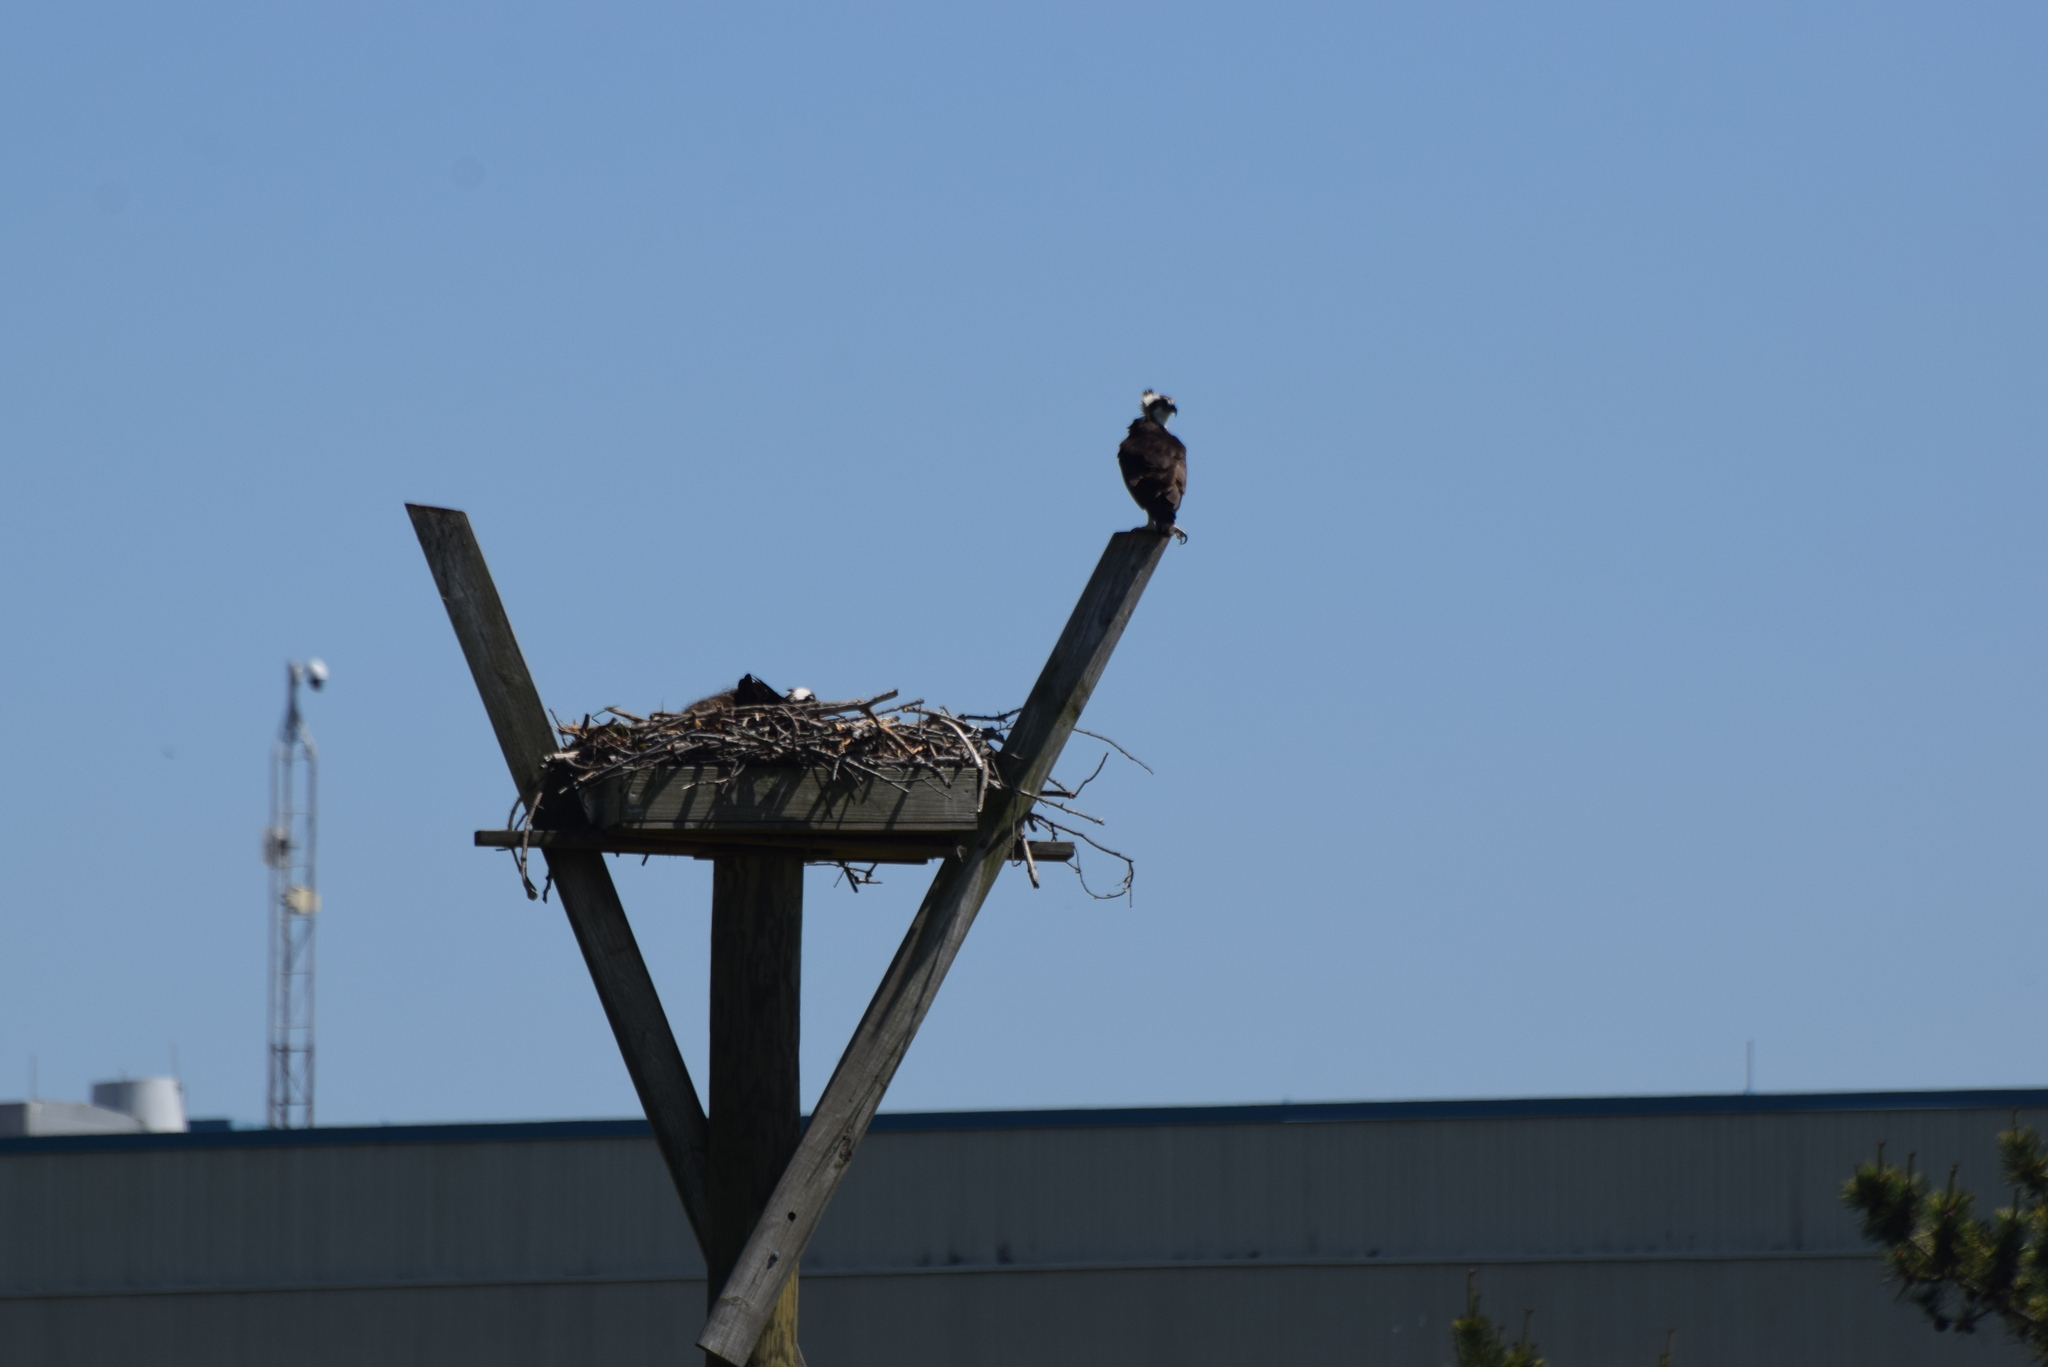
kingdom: Animalia
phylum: Chordata
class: Aves
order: Accipitriformes
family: Pandionidae
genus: Pandion
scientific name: Pandion haliaetus
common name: Osprey
